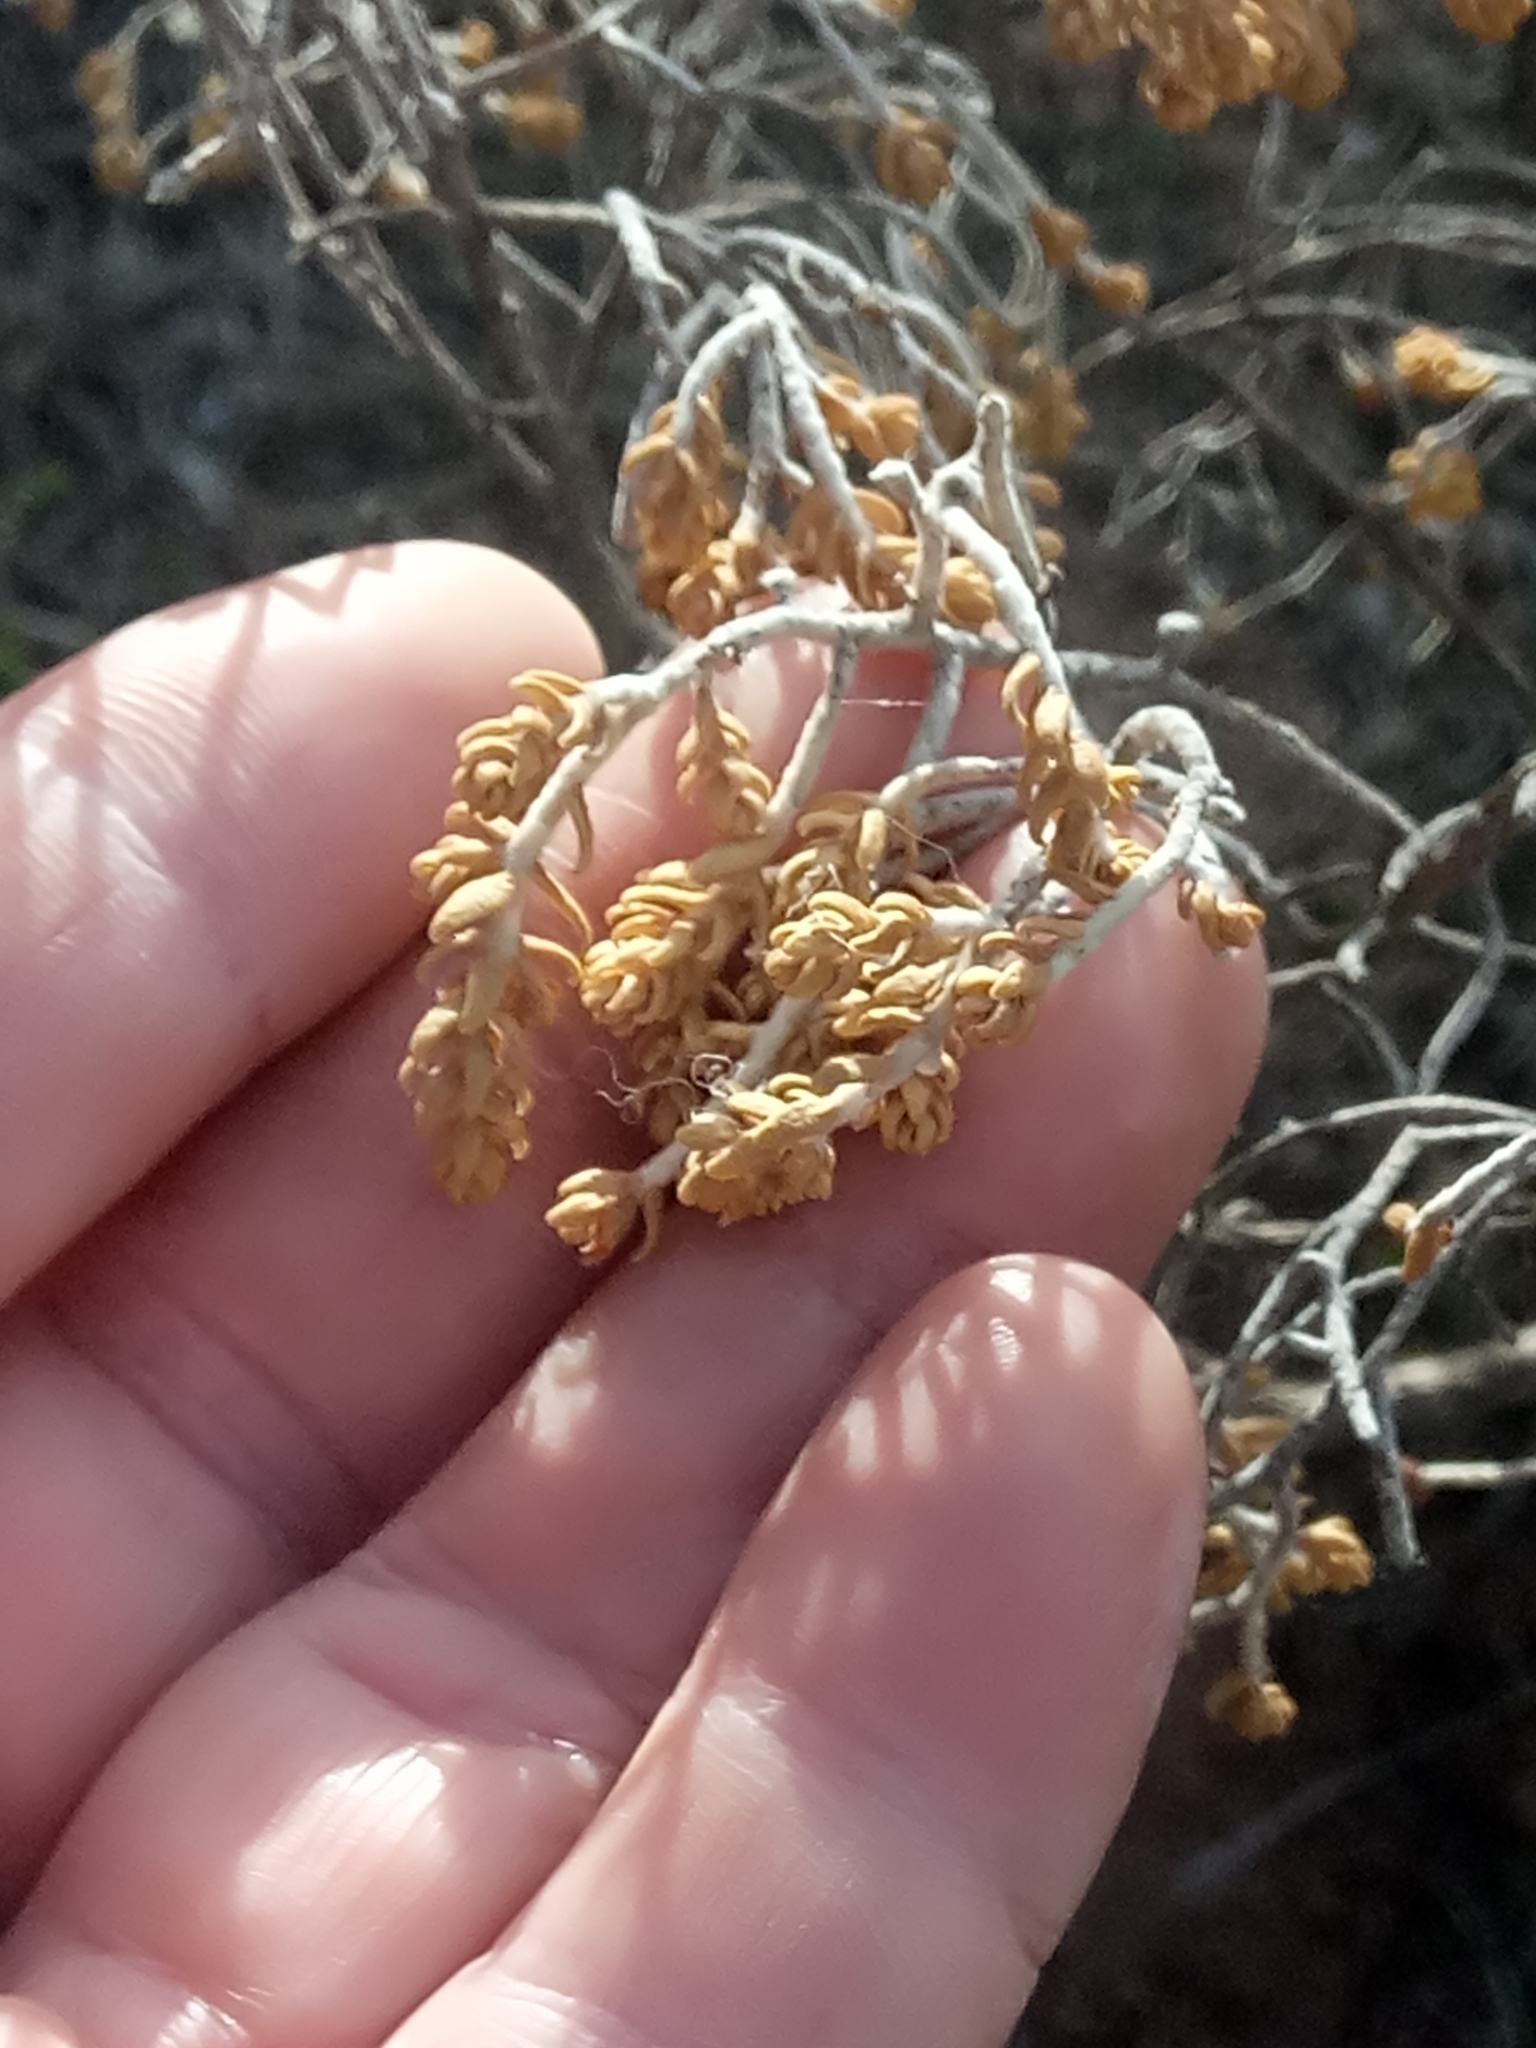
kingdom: Plantae
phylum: Tracheophyta
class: Magnoliopsida
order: Malvales
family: Thymelaeaceae
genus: Thymelaea
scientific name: Thymelaea hirsuta
